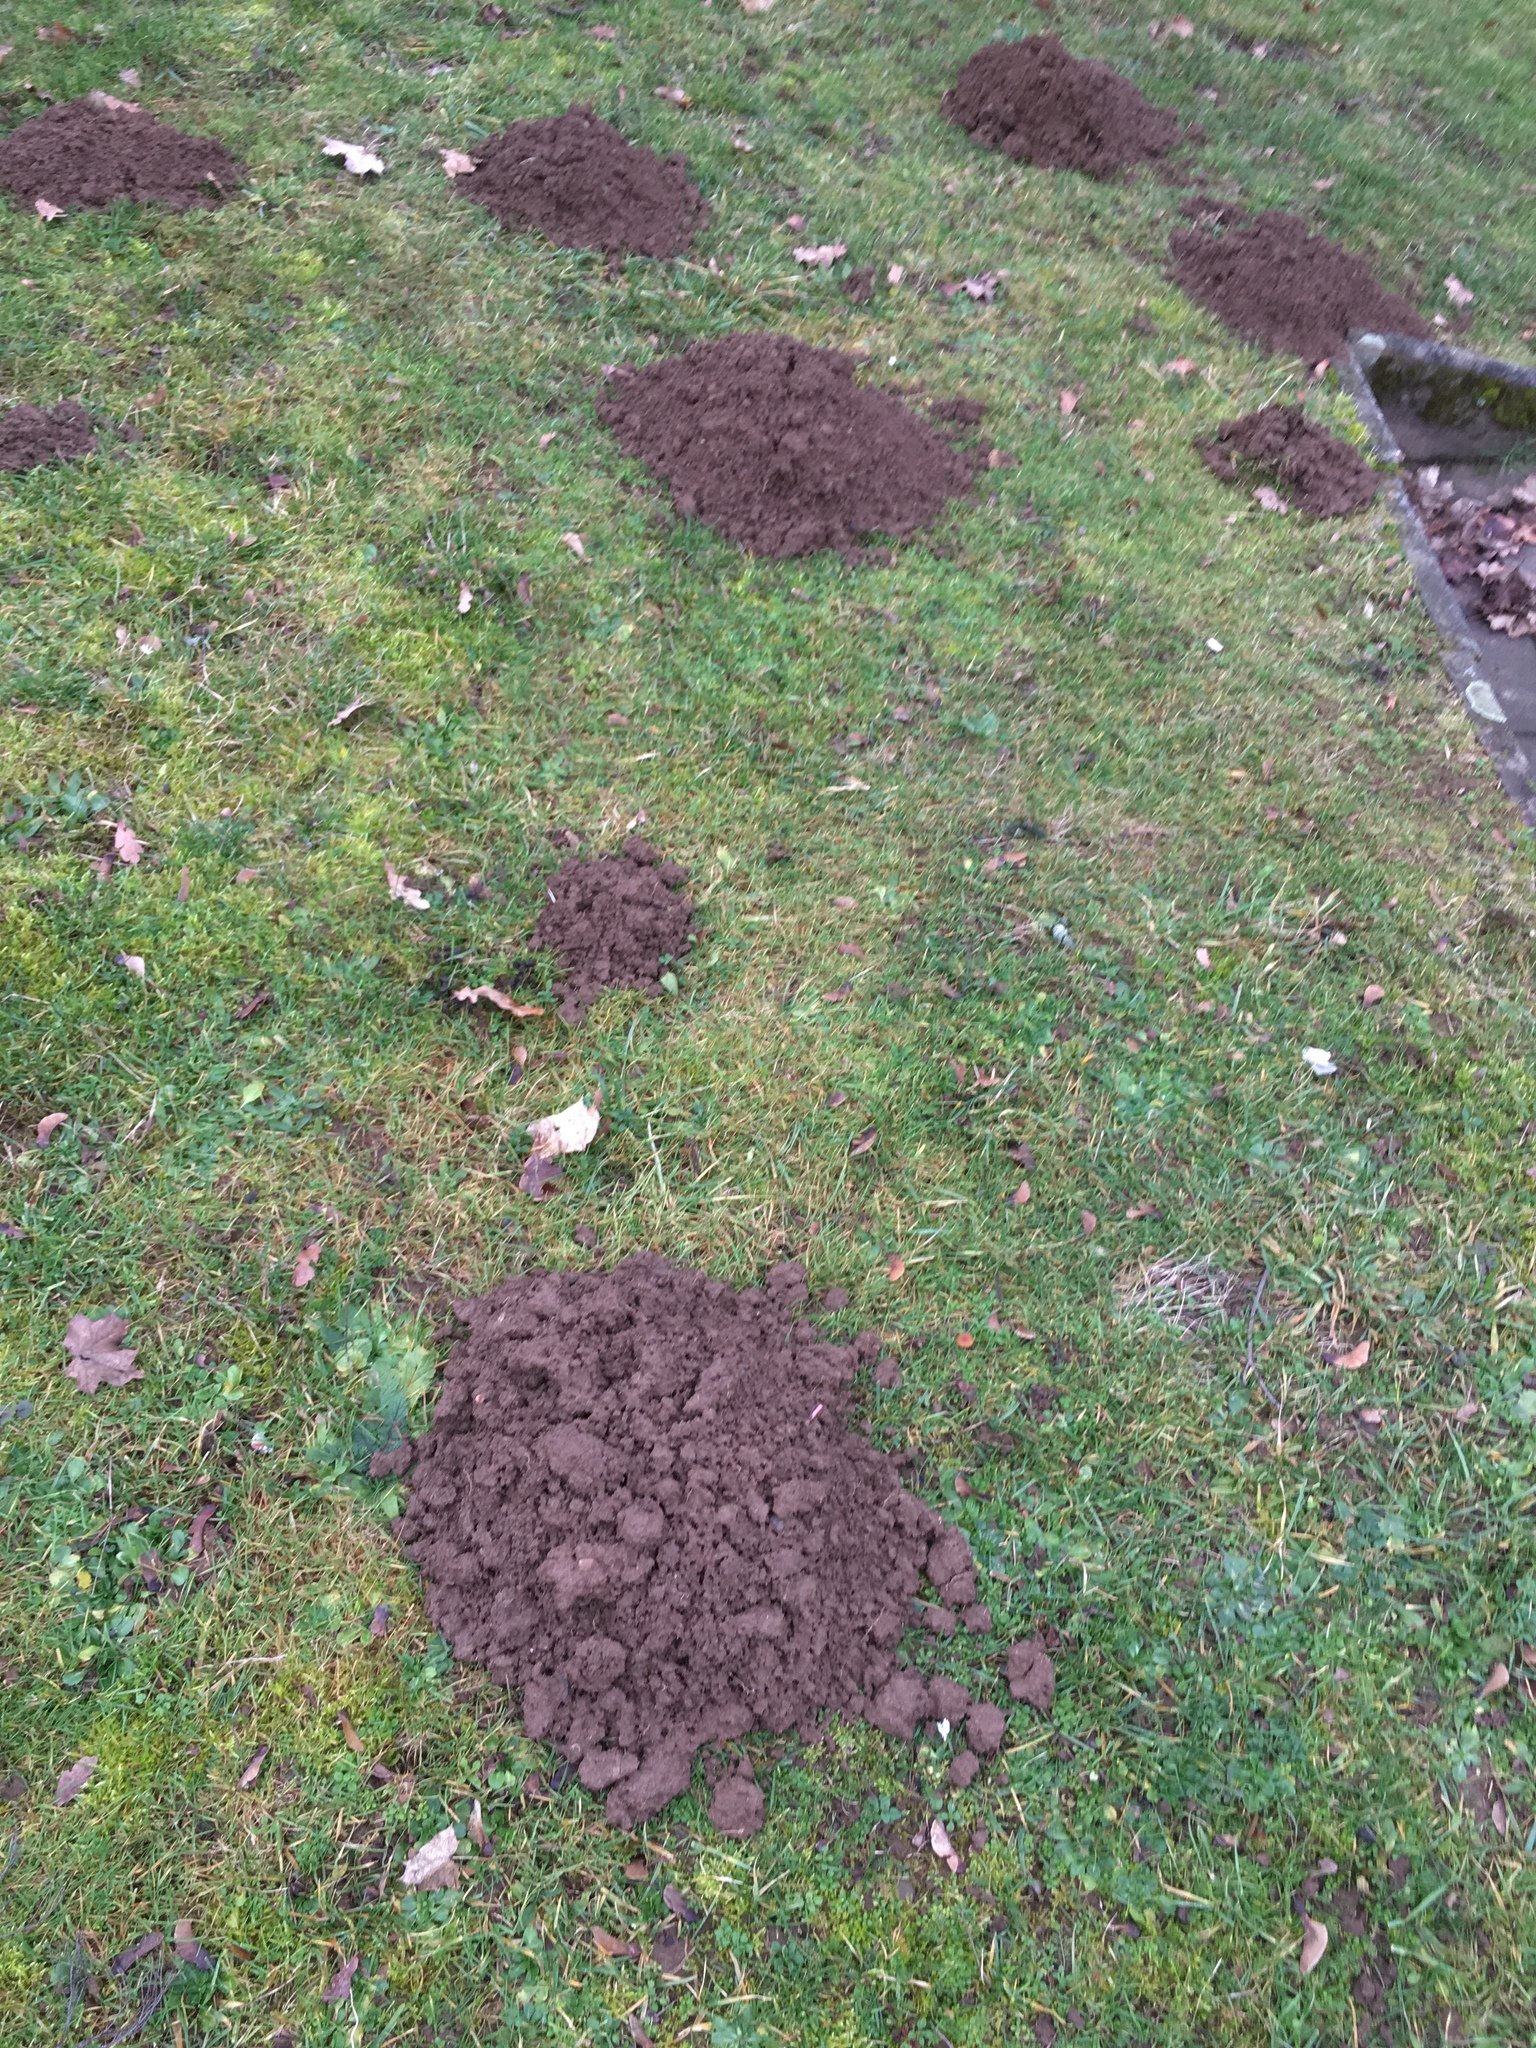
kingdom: Animalia
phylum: Chordata
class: Mammalia
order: Soricomorpha
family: Talpidae
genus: Talpa
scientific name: Talpa europaea
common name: European mole
